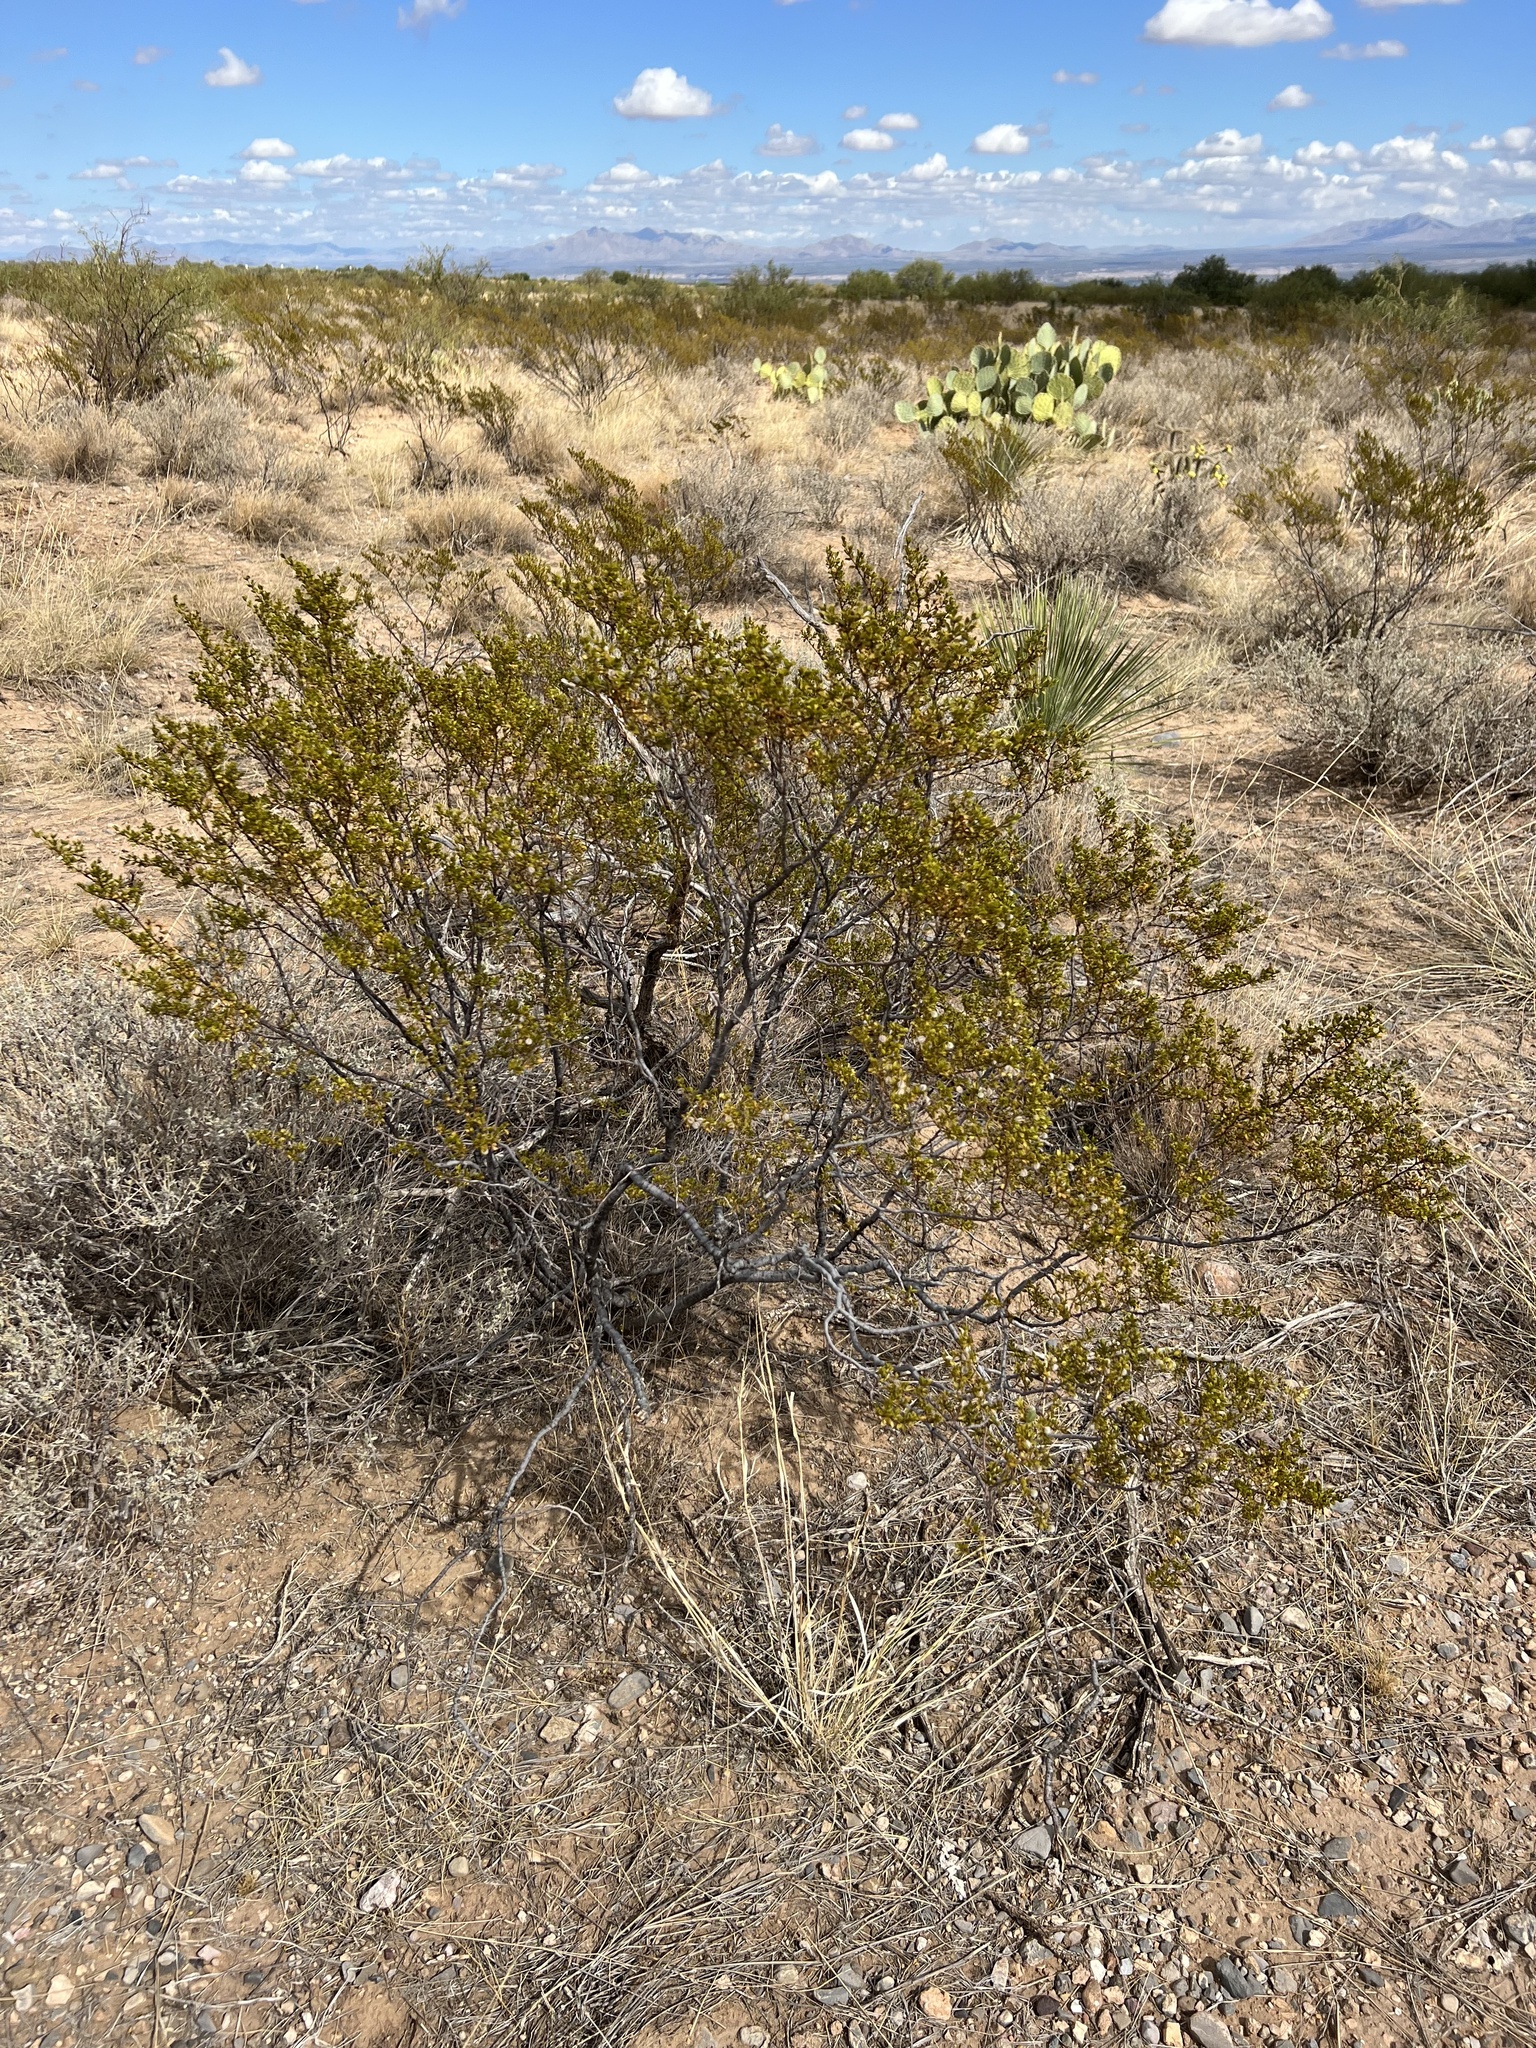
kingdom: Plantae
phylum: Tracheophyta
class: Magnoliopsida
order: Zygophyllales
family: Zygophyllaceae
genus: Larrea
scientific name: Larrea tridentata
